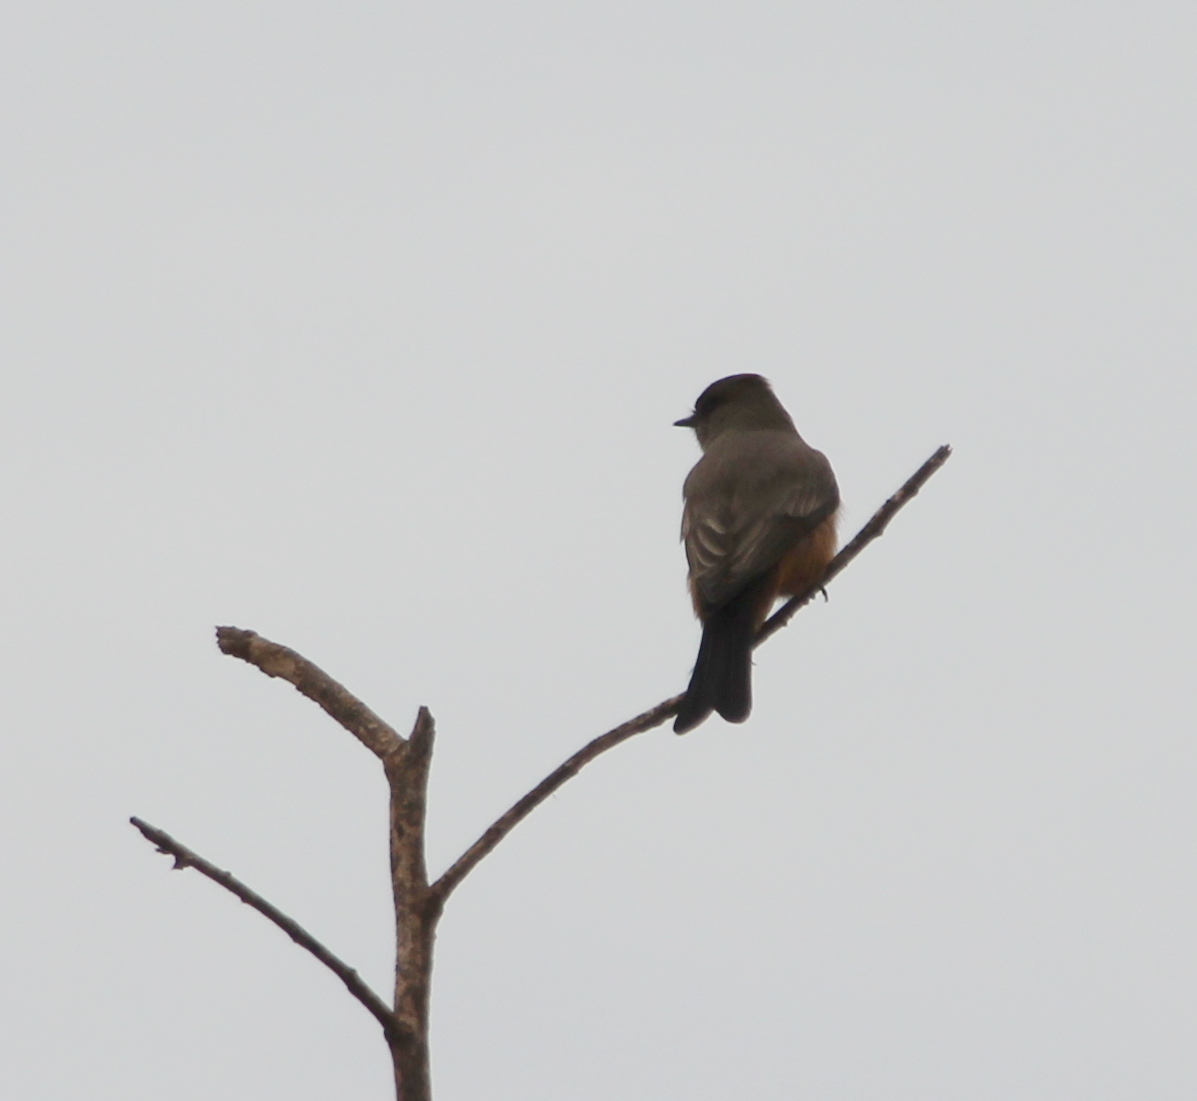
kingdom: Animalia
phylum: Chordata
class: Aves
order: Passeriformes
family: Tyrannidae
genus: Sayornis
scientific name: Sayornis saya
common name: Say's phoebe
